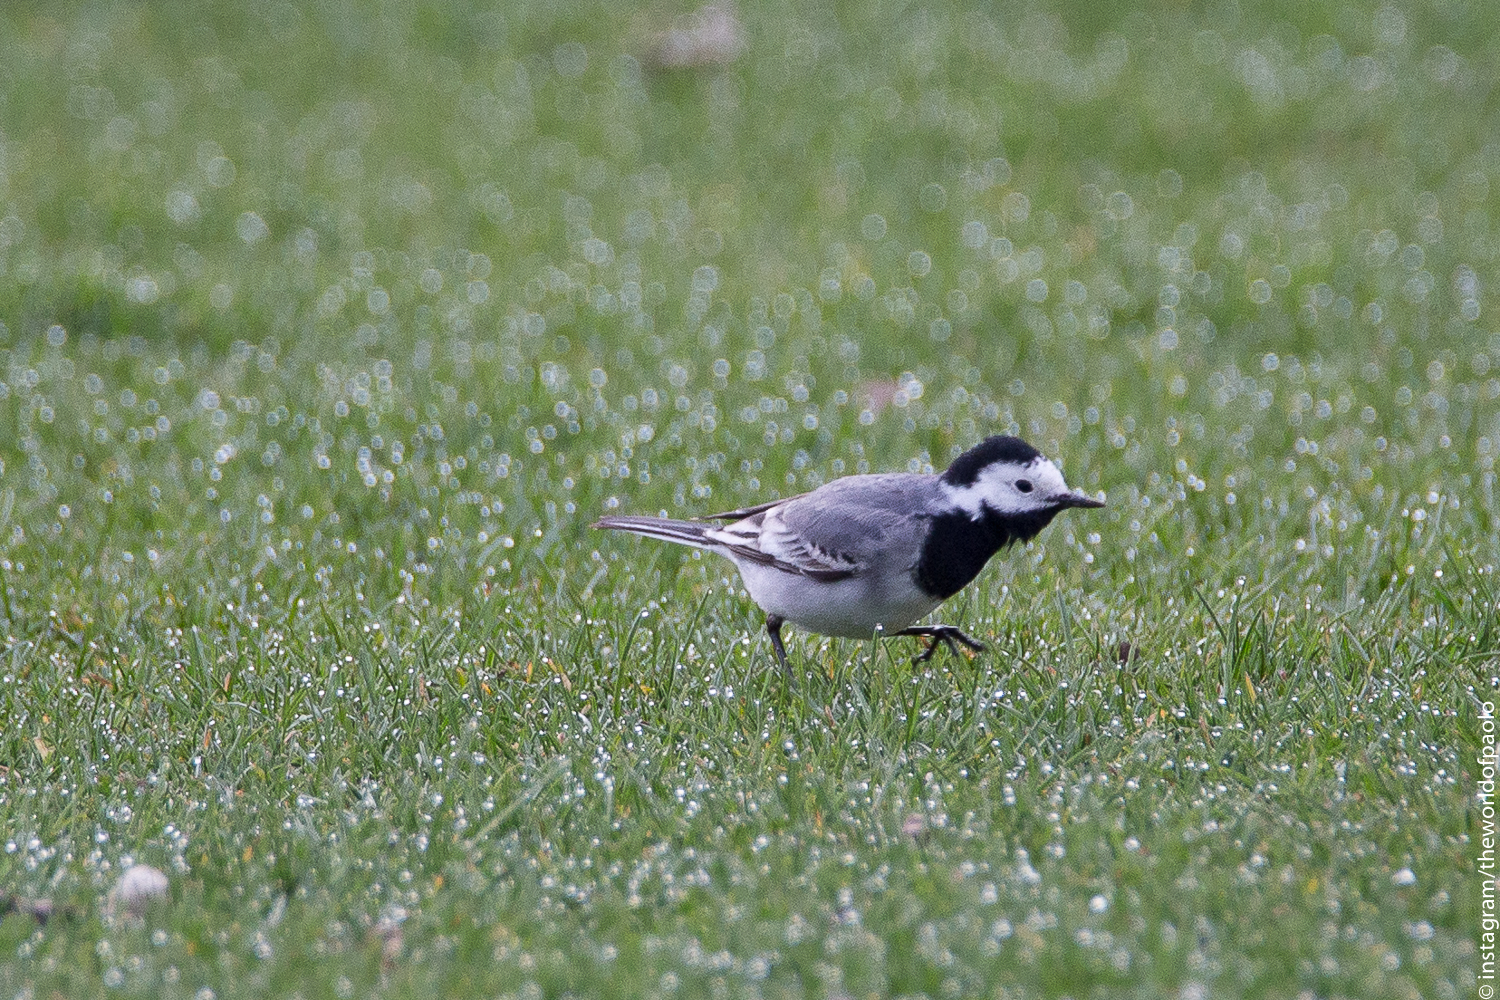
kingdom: Animalia
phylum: Chordata
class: Aves
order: Passeriformes
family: Motacillidae
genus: Motacilla
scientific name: Motacilla alba
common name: White wagtail
